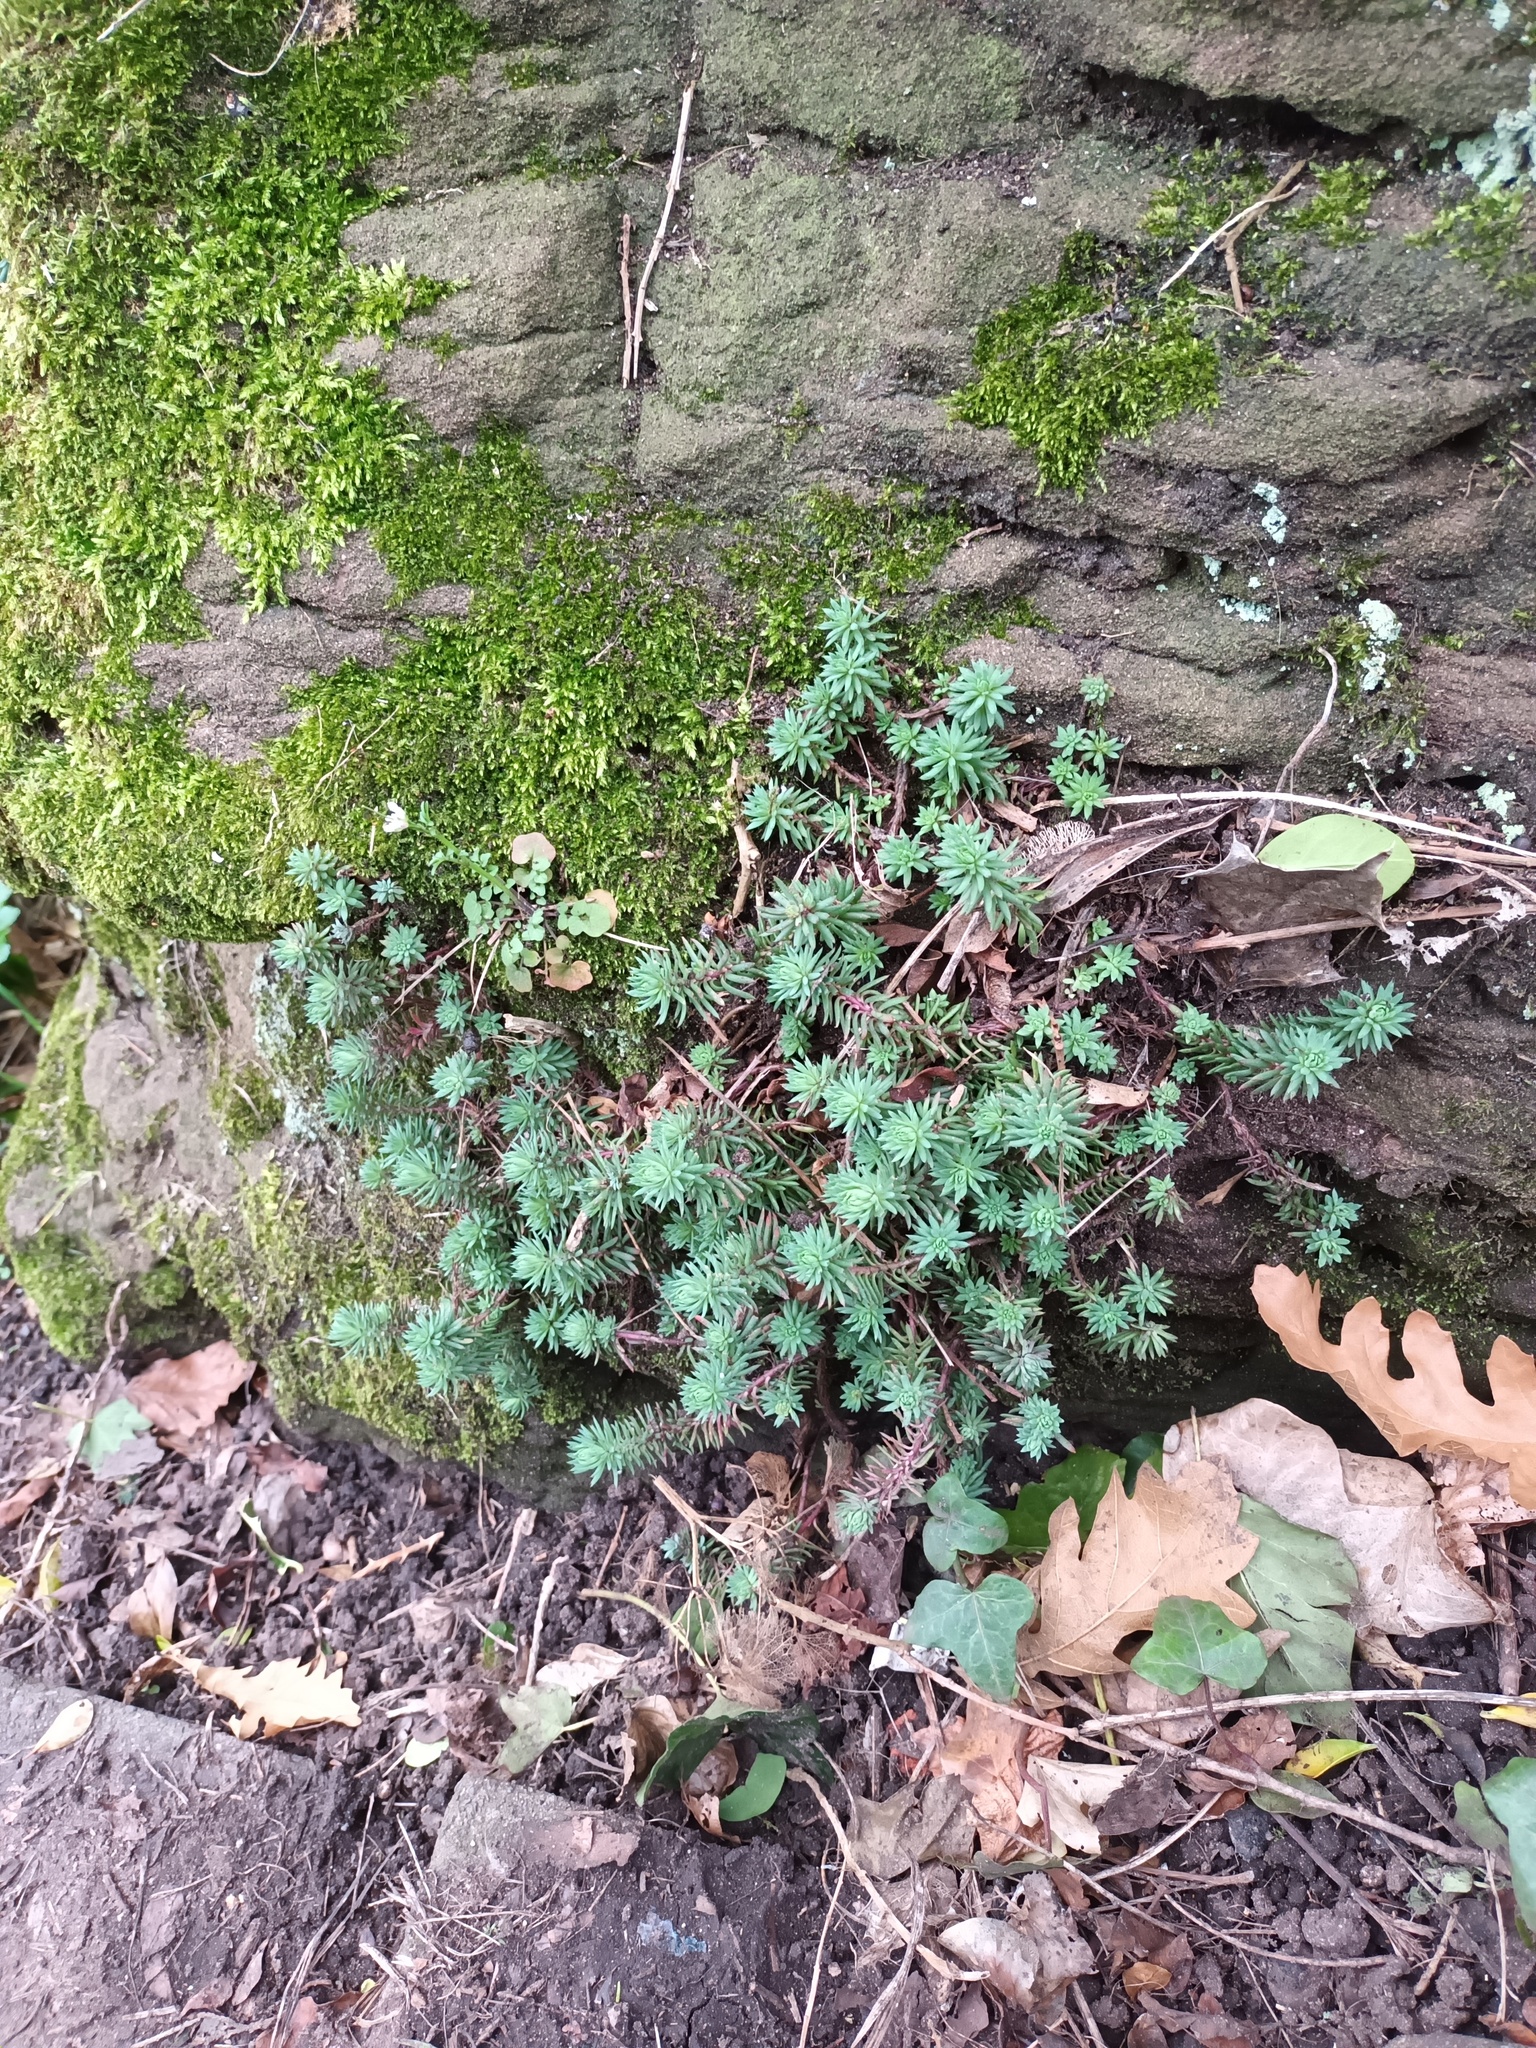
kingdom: Plantae
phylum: Tracheophyta
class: Magnoliopsida
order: Saxifragales
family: Crassulaceae
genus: Petrosedum
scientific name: Petrosedum rupestre
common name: Jenny's stonecrop
